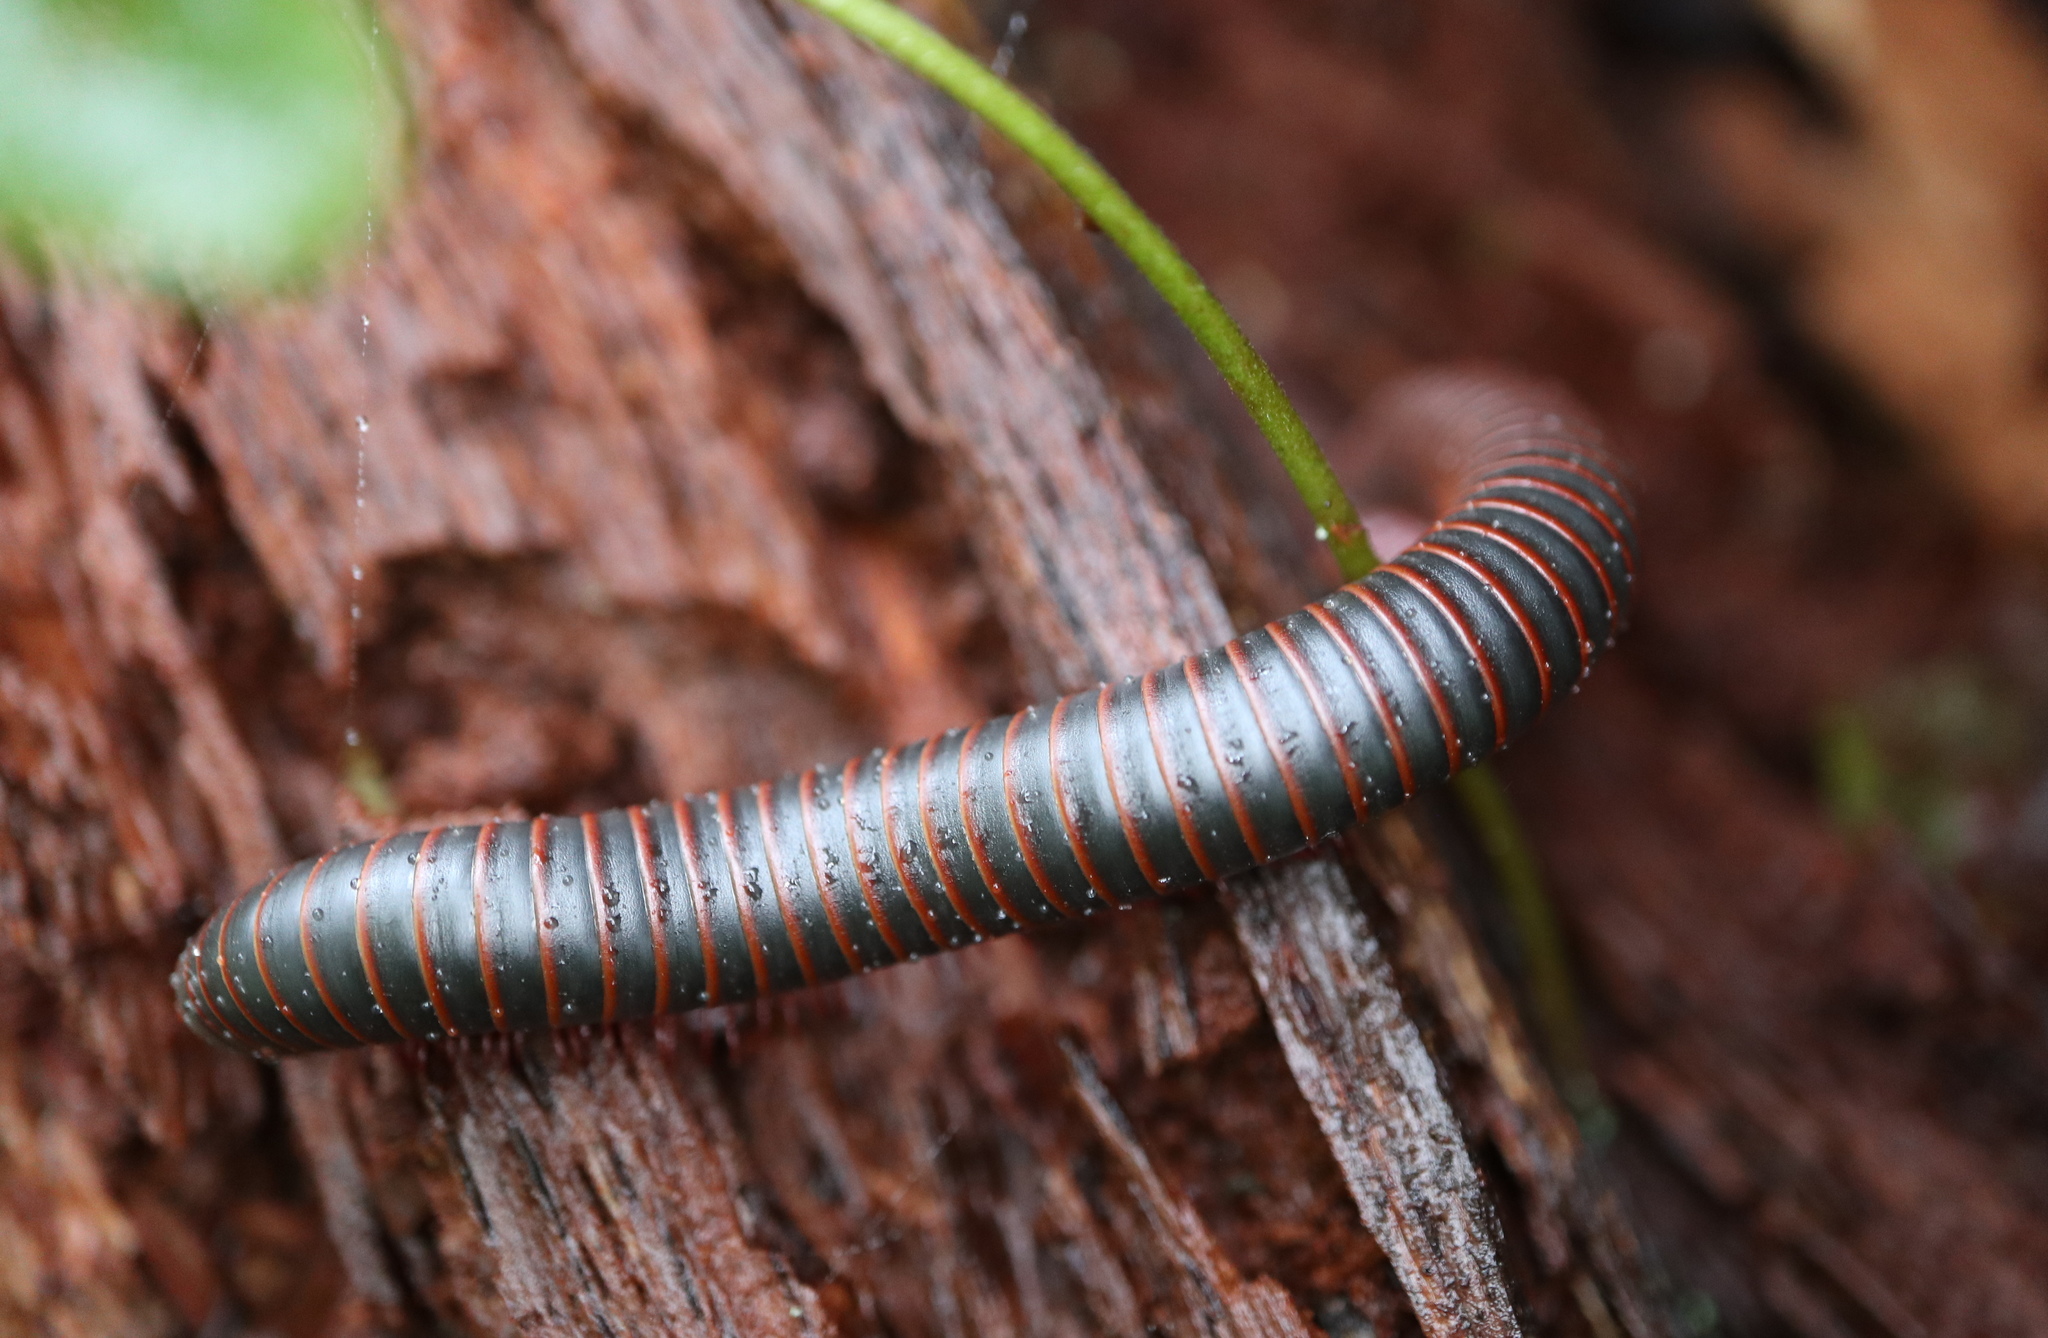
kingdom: Animalia
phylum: Arthropoda
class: Diplopoda
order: Spirobolida
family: Spirobolidae
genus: Narceus
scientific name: Narceus
